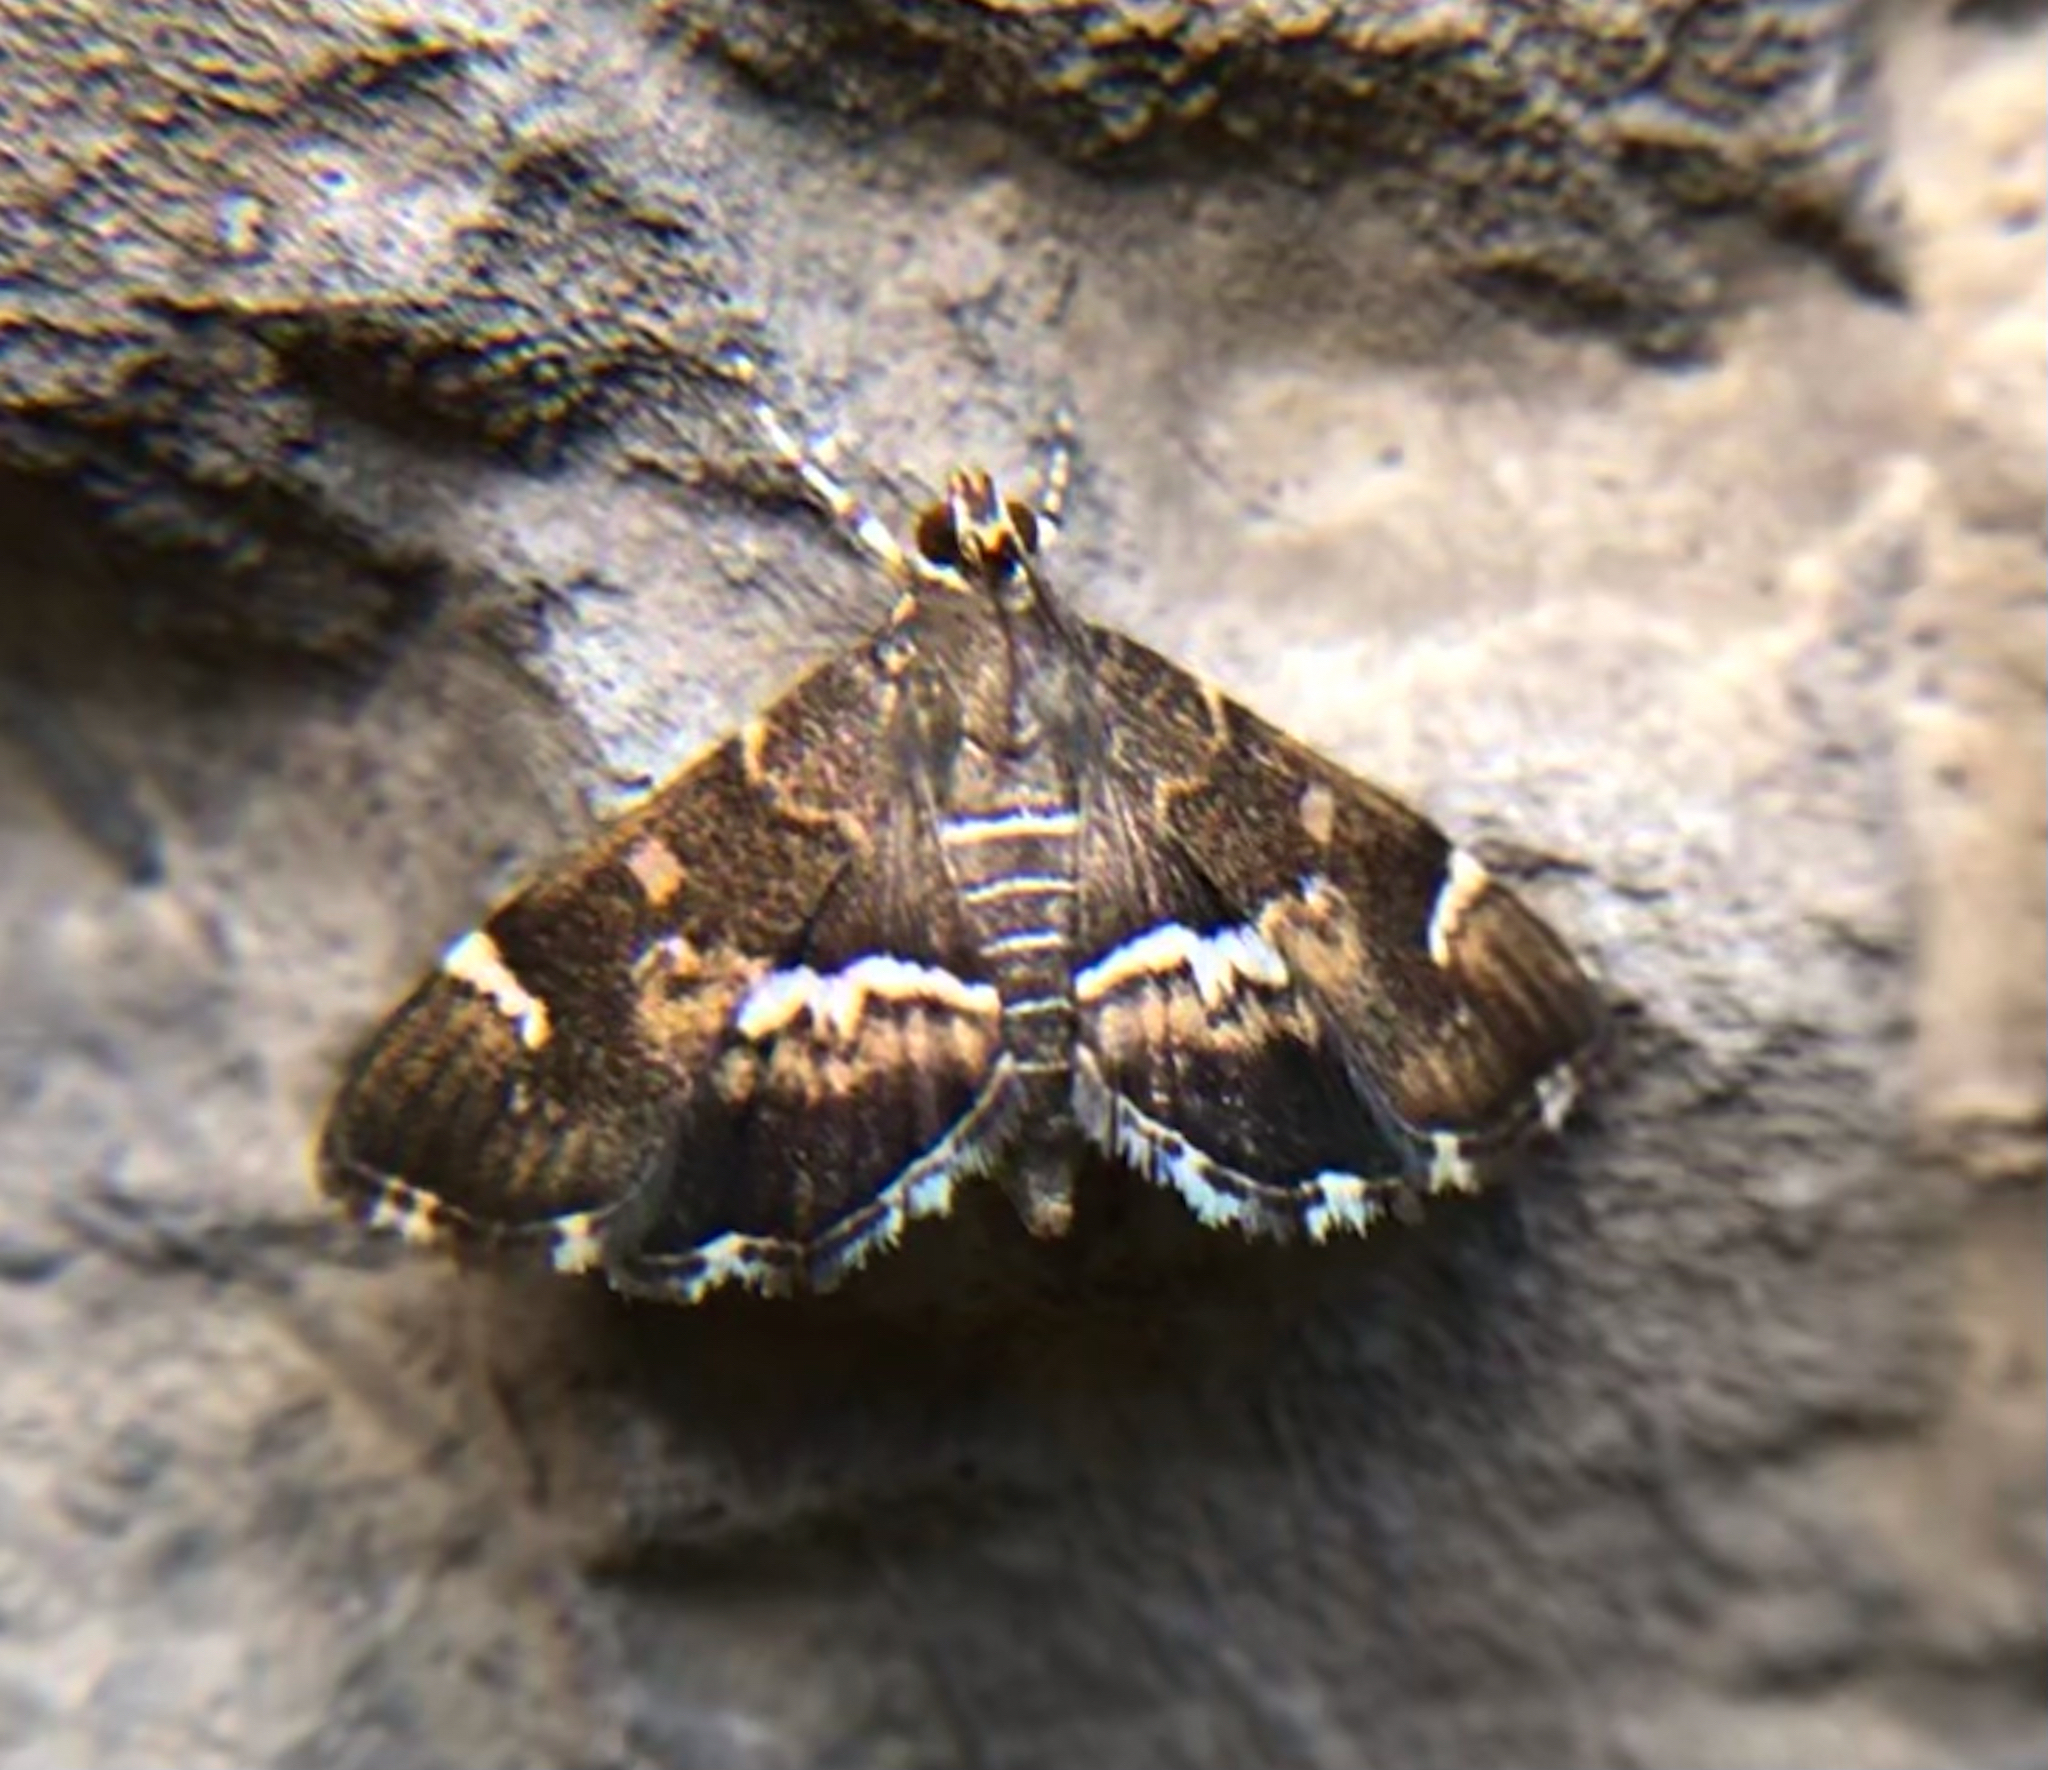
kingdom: Animalia
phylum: Arthropoda
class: Insecta
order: Lepidoptera
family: Crambidae
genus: Hymenia
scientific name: Hymenia perspectalis
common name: Spotted beet webworm
